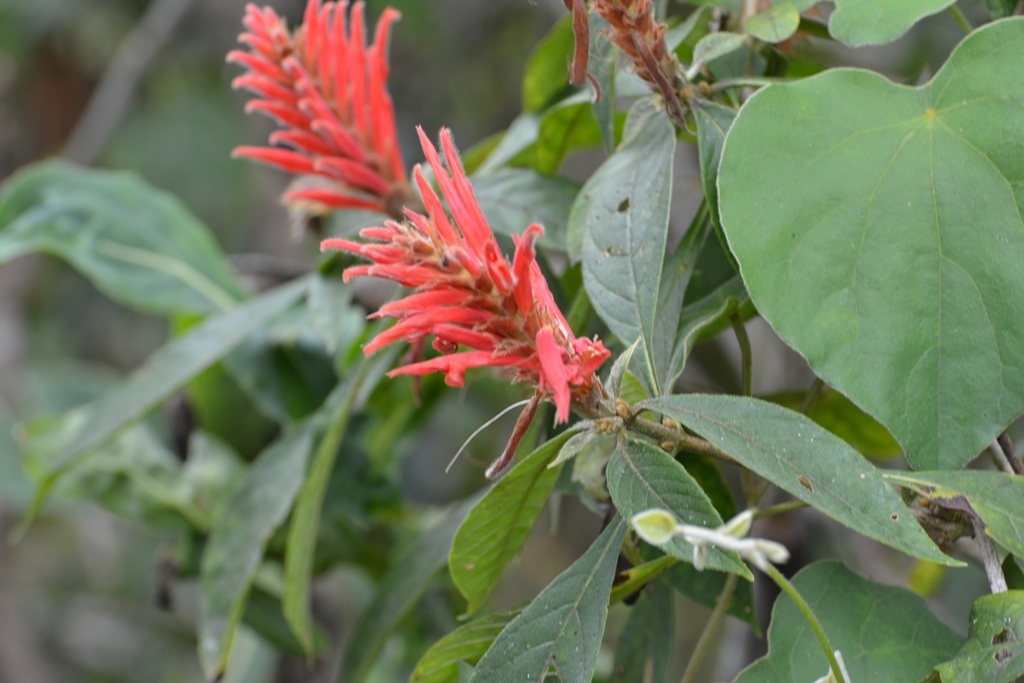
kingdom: Plantae
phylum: Tracheophyta
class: Magnoliopsida
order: Lamiales
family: Acanthaceae
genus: Aphelandra
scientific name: Aphelandra scabra
